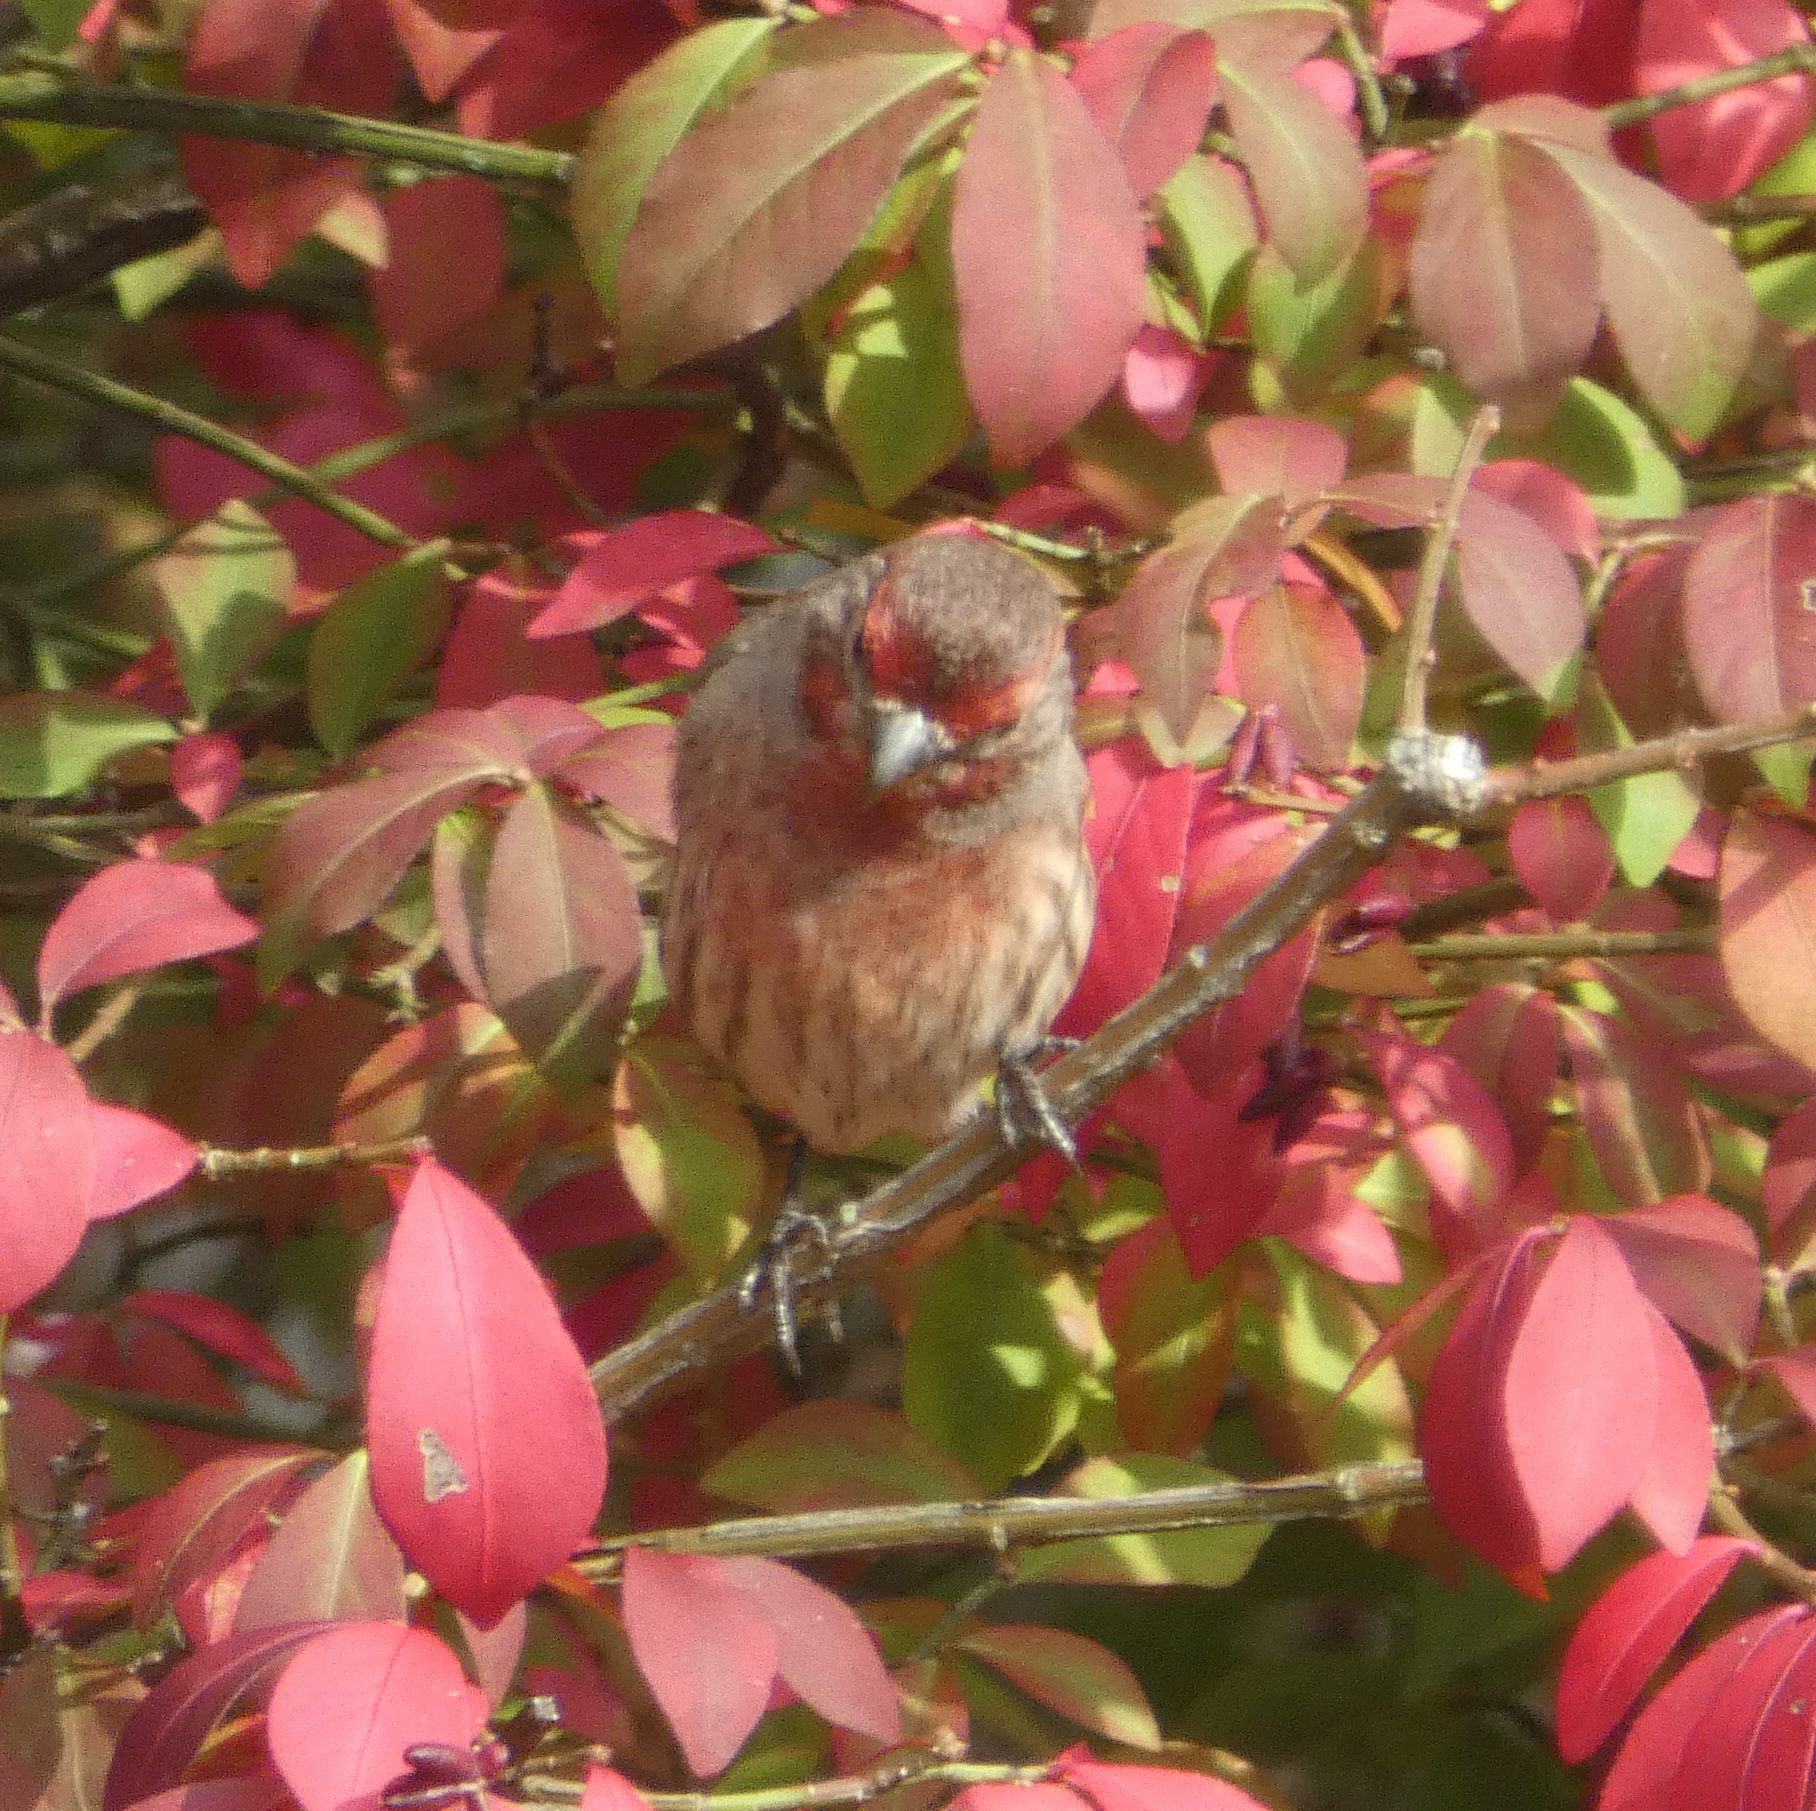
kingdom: Animalia
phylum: Chordata
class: Aves
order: Passeriformes
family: Fringillidae
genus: Haemorhous
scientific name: Haemorhous mexicanus
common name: House finch
